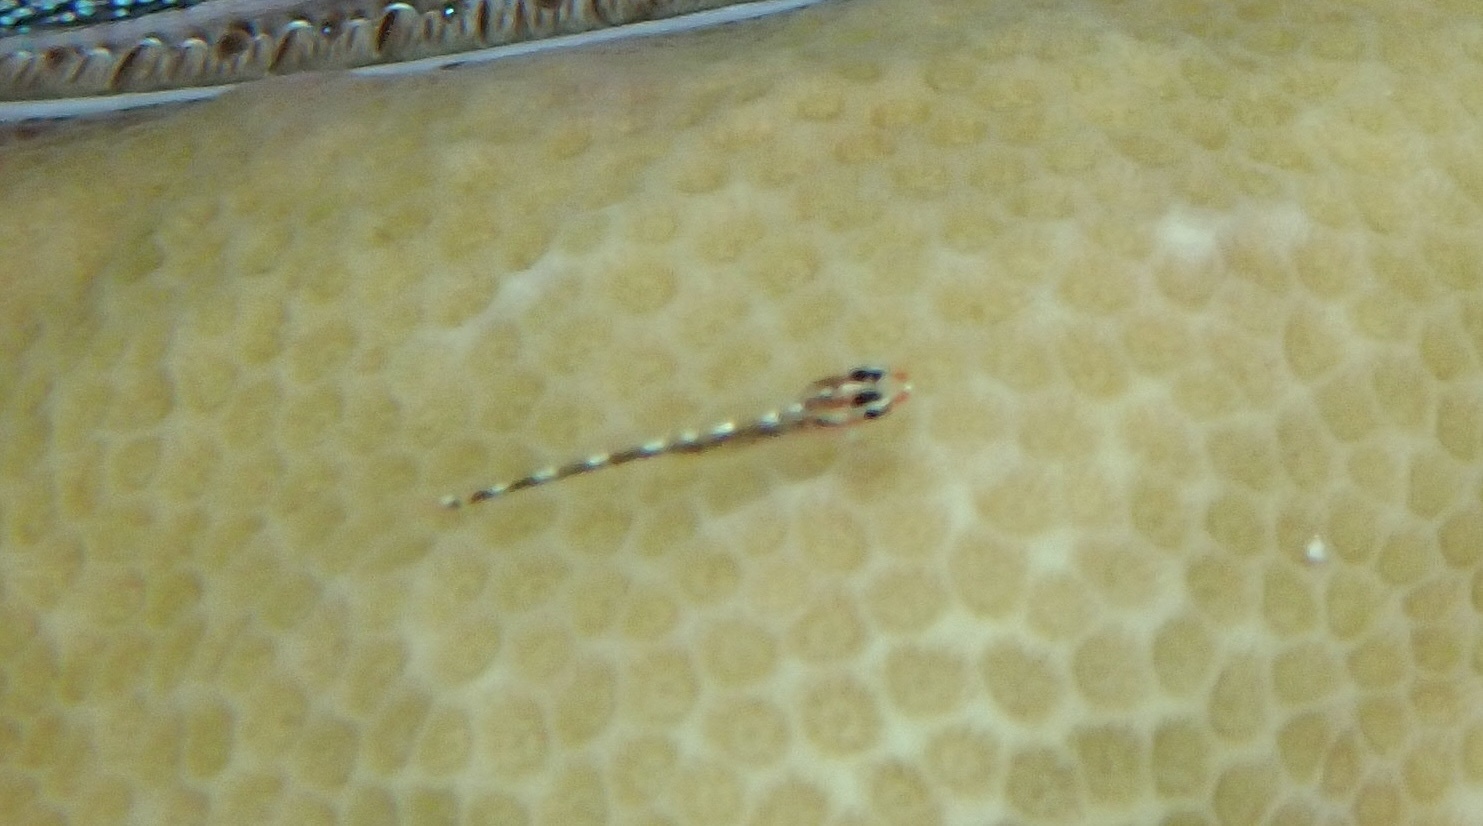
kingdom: Animalia
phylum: Chordata
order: Perciformes
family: Gobiidae
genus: Eviota
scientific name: Eviota sebreei
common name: Sebree's pygmy goby
